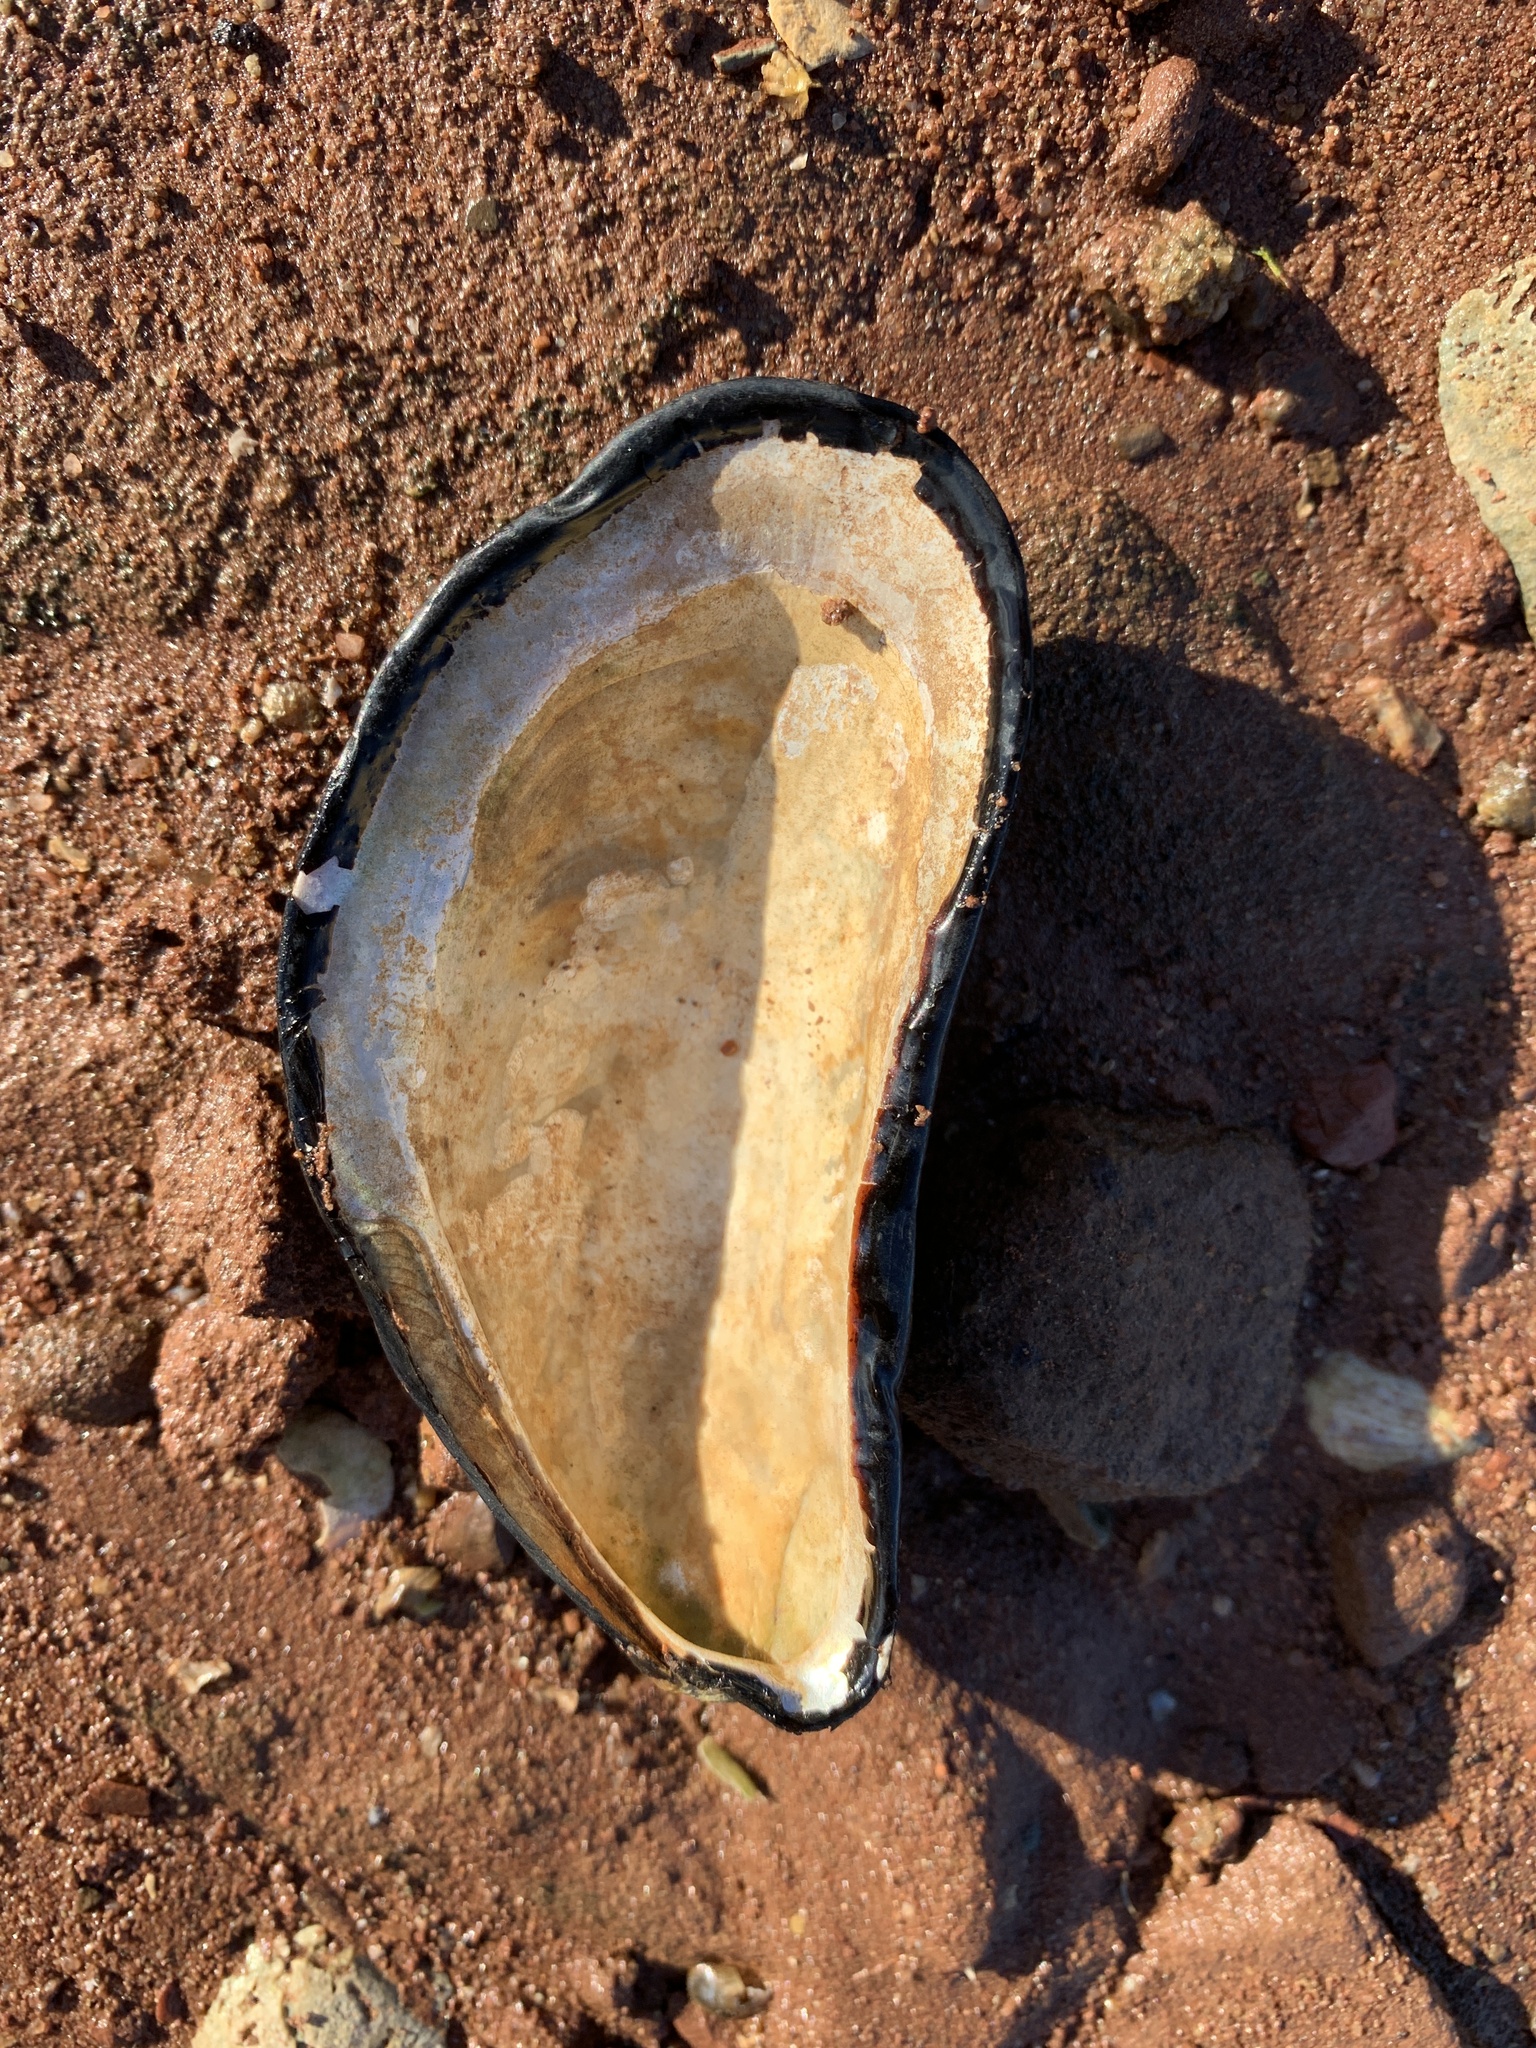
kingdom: Animalia
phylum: Mollusca
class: Bivalvia
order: Mytilida
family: Mytilidae
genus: Modiolus
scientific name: Modiolus modiolus
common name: Horse-mussel
